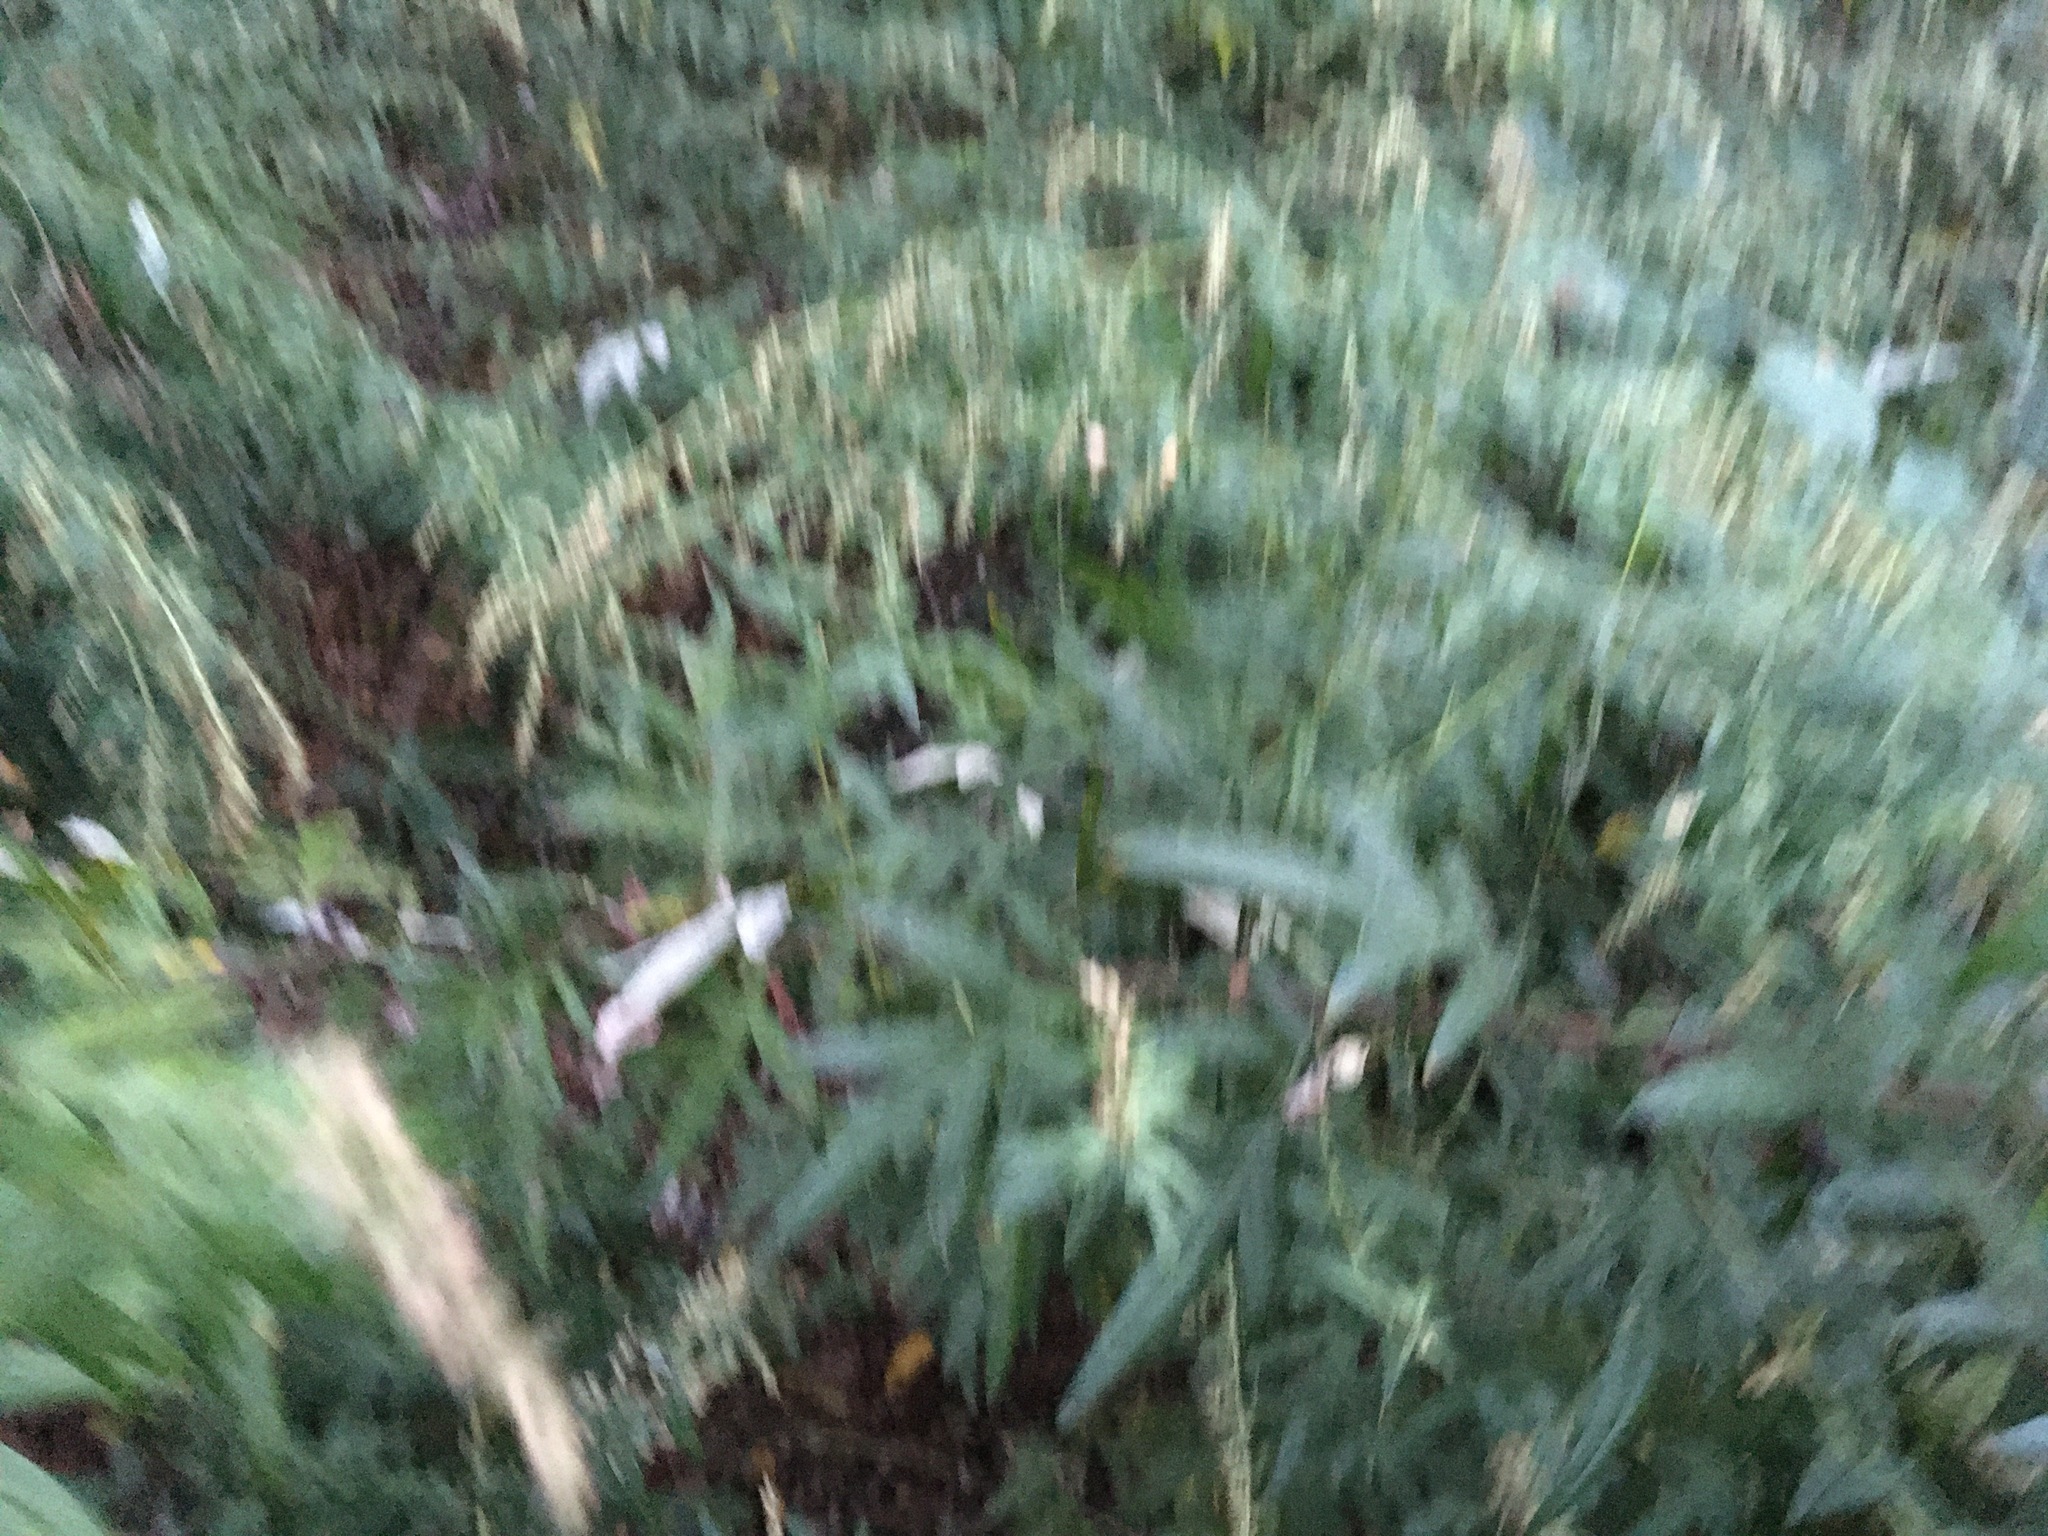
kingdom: Plantae
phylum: Tracheophyta
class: Magnoliopsida
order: Asterales
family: Asteraceae
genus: Artemisia
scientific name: Artemisia vulgaris
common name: Mugwort
